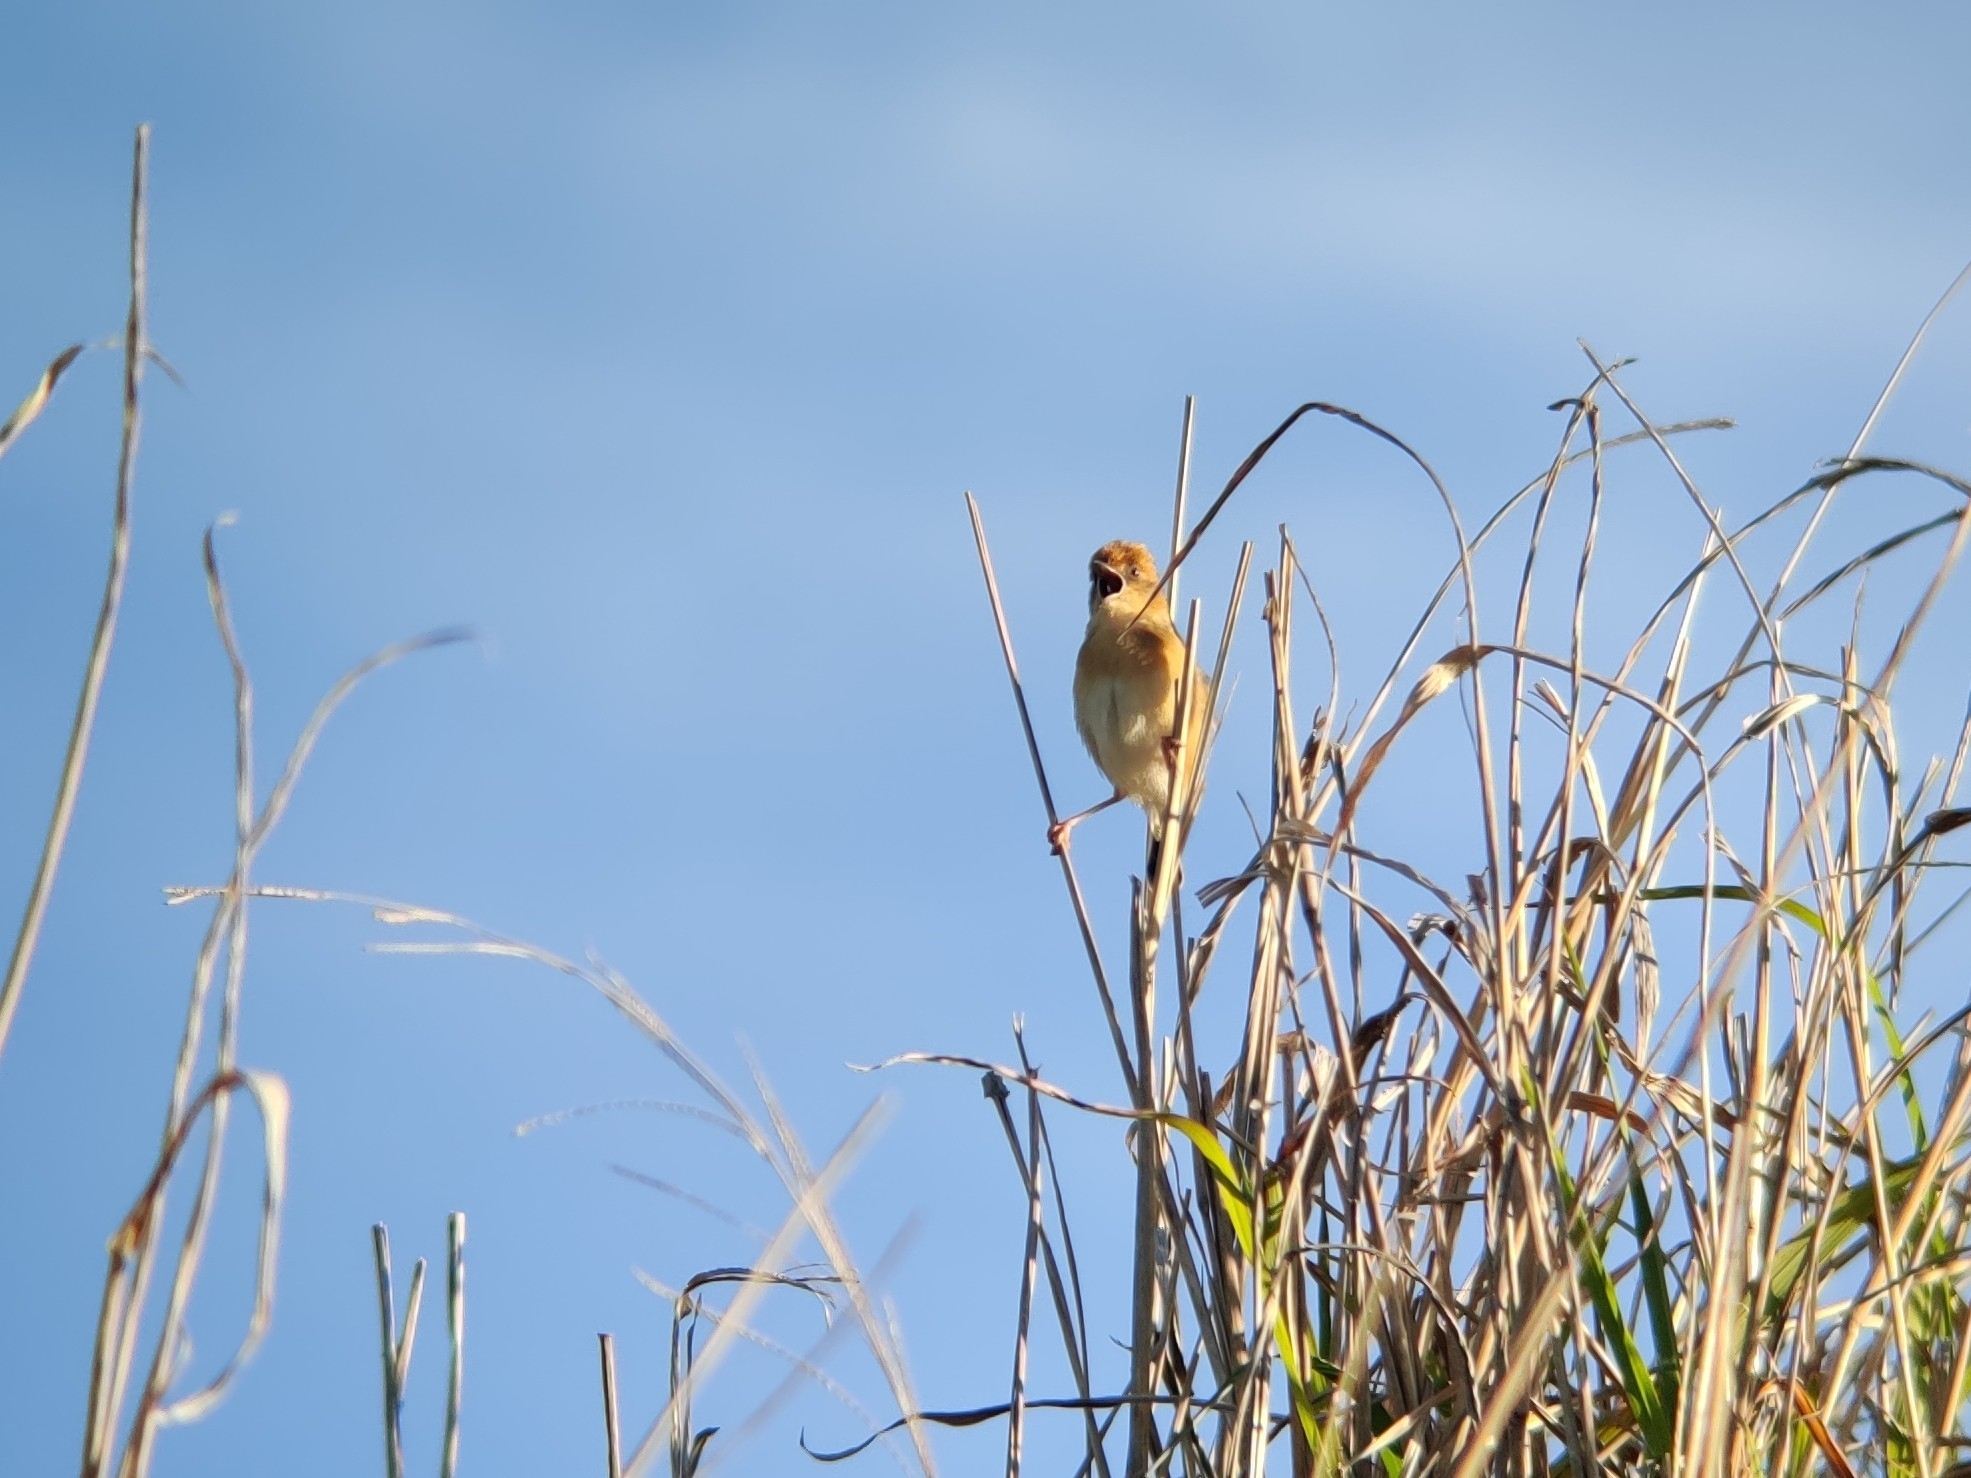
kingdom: Animalia
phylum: Chordata
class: Aves
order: Passeriformes
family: Cisticolidae
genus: Cisticola
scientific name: Cisticola exilis
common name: Golden-headed cisticola
